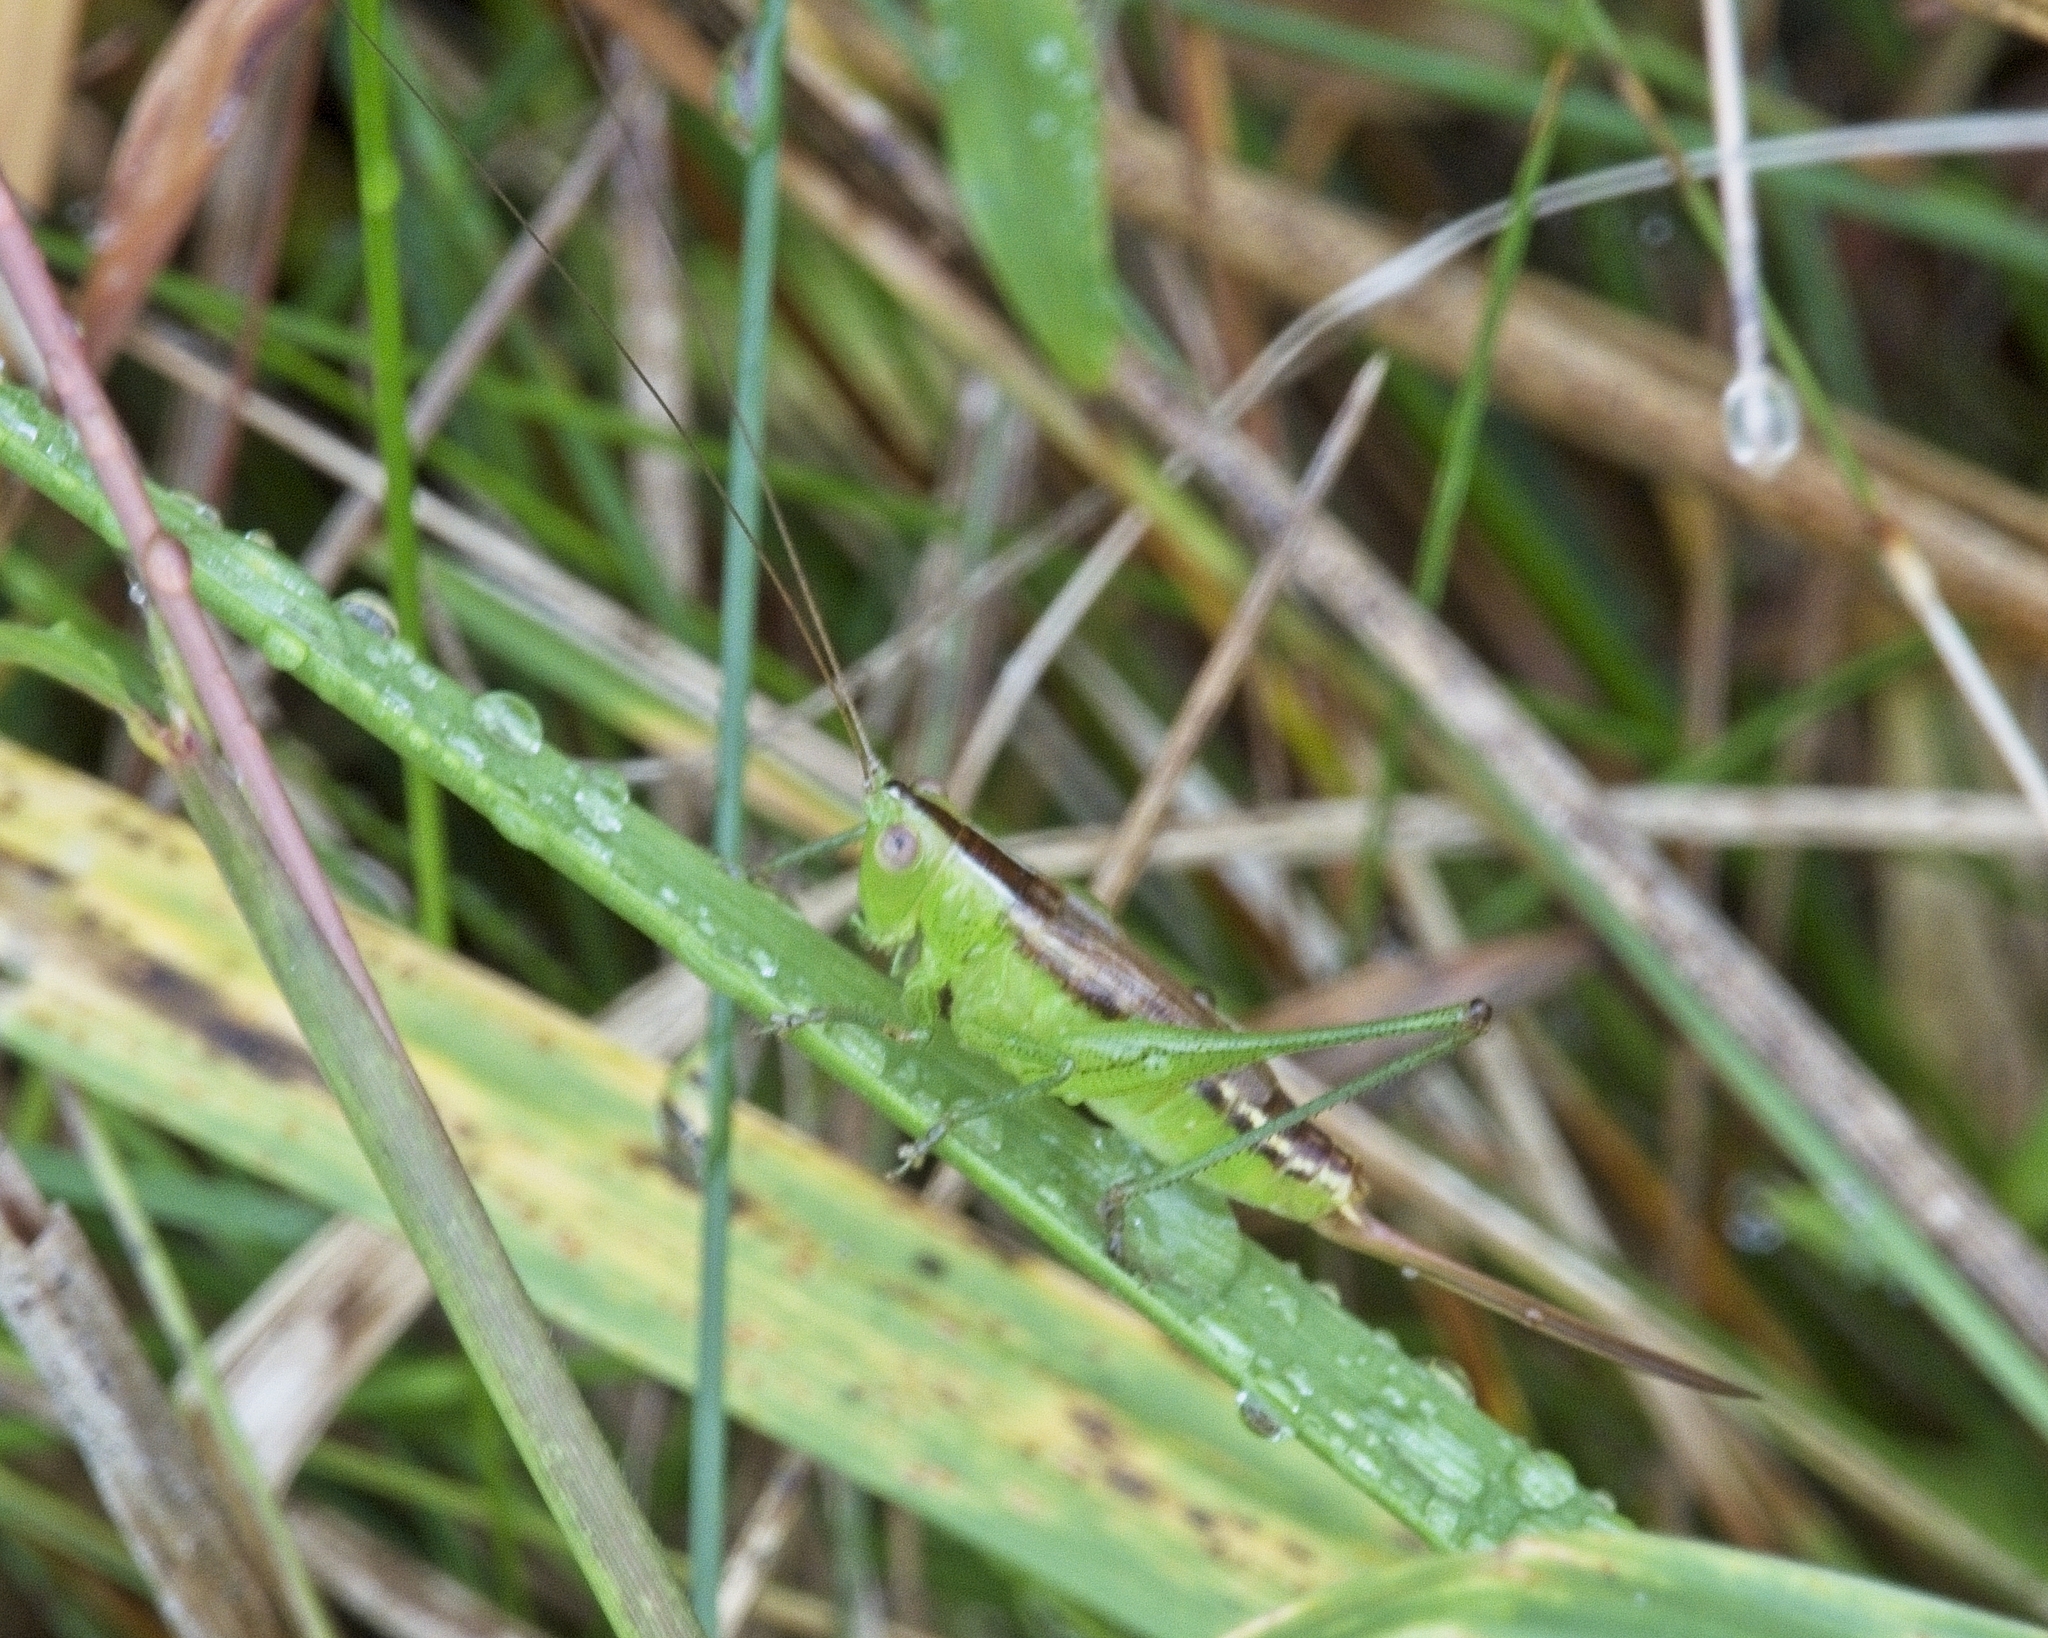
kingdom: Animalia
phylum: Arthropoda
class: Insecta
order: Orthoptera
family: Tettigoniidae
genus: Conocephalus
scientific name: Conocephalus brevipennis
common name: Short-winged meadow katydid
